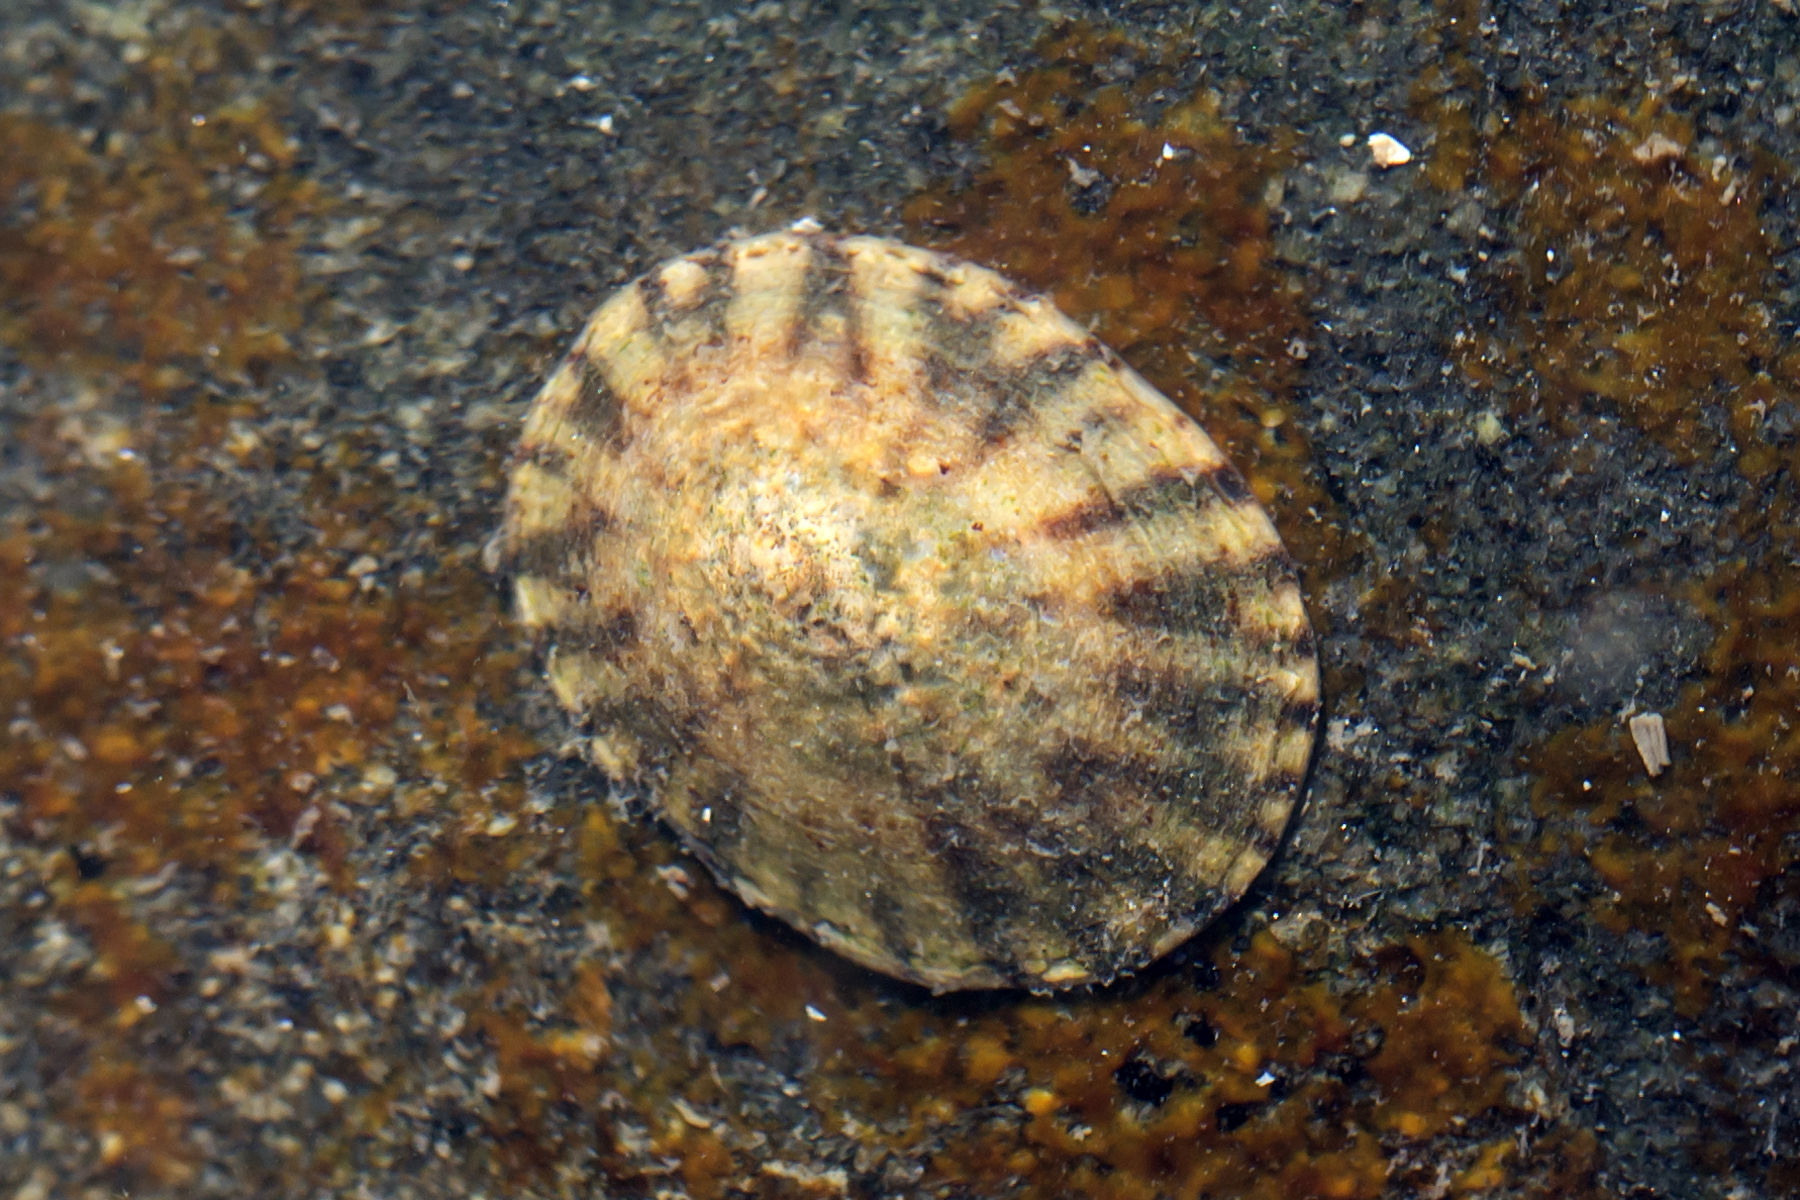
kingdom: Animalia
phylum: Mollusca
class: Gastropoda
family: Lottiidae
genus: Testudinalia
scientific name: Testudinalia testudinalis
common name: Common tortoiseshell limpet
